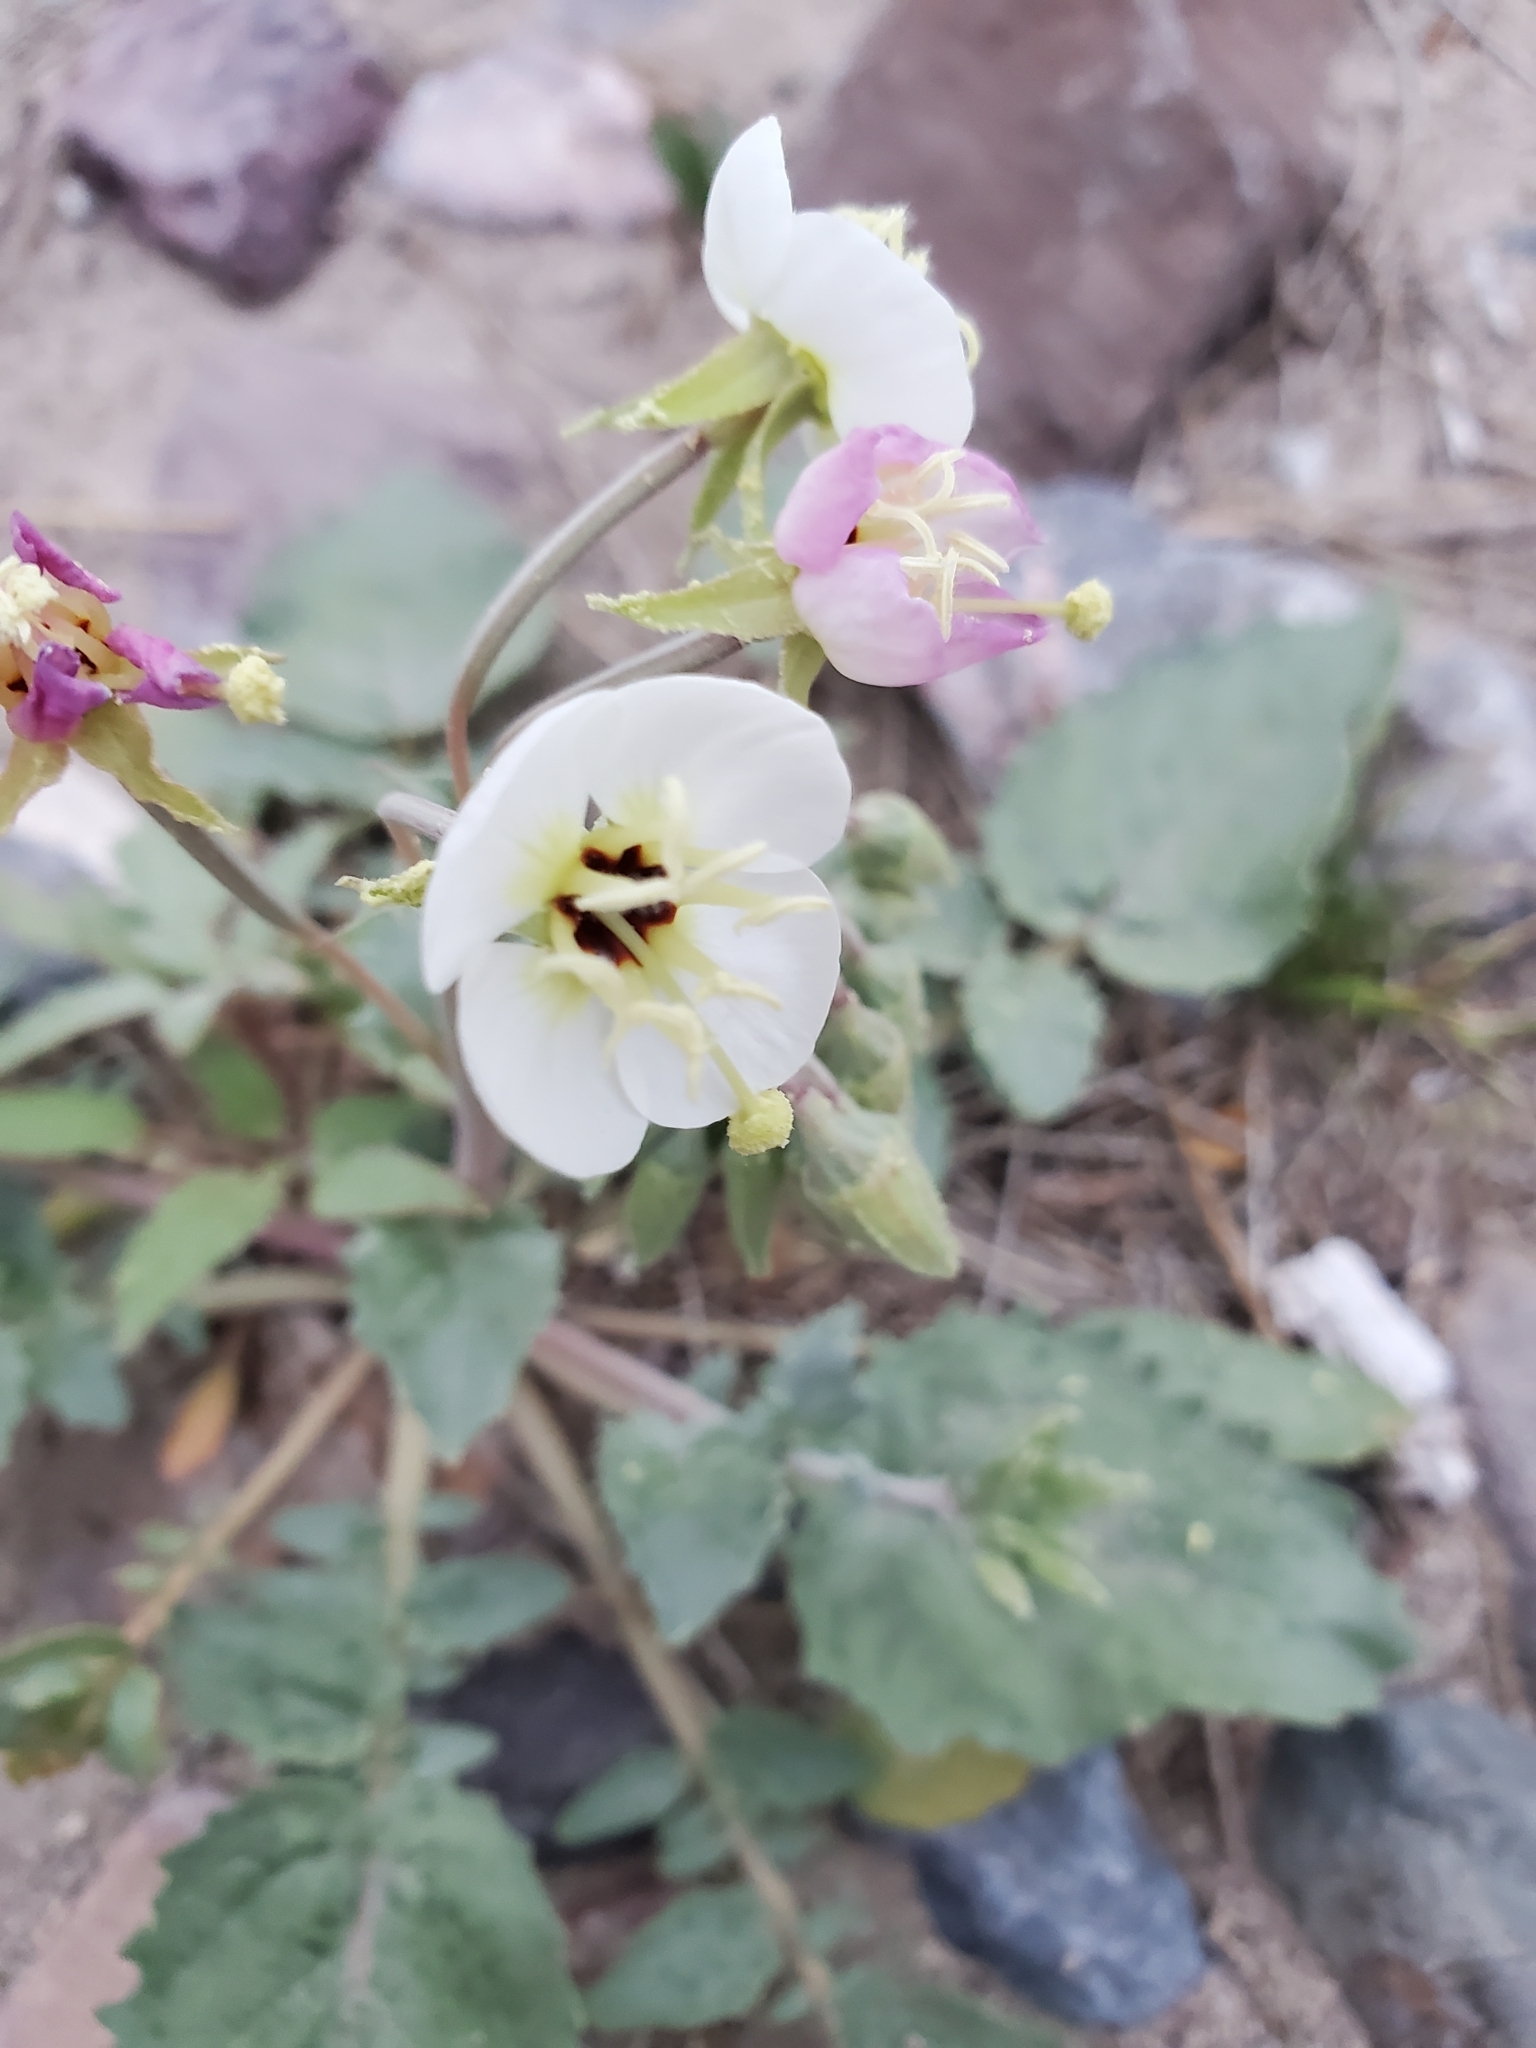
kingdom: Plantae
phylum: Tracheophyta
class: Magnoliopsida
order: Myrtales
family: Onagraceae
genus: Chylismia
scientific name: Chylismia claviformis
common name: Browneyes
